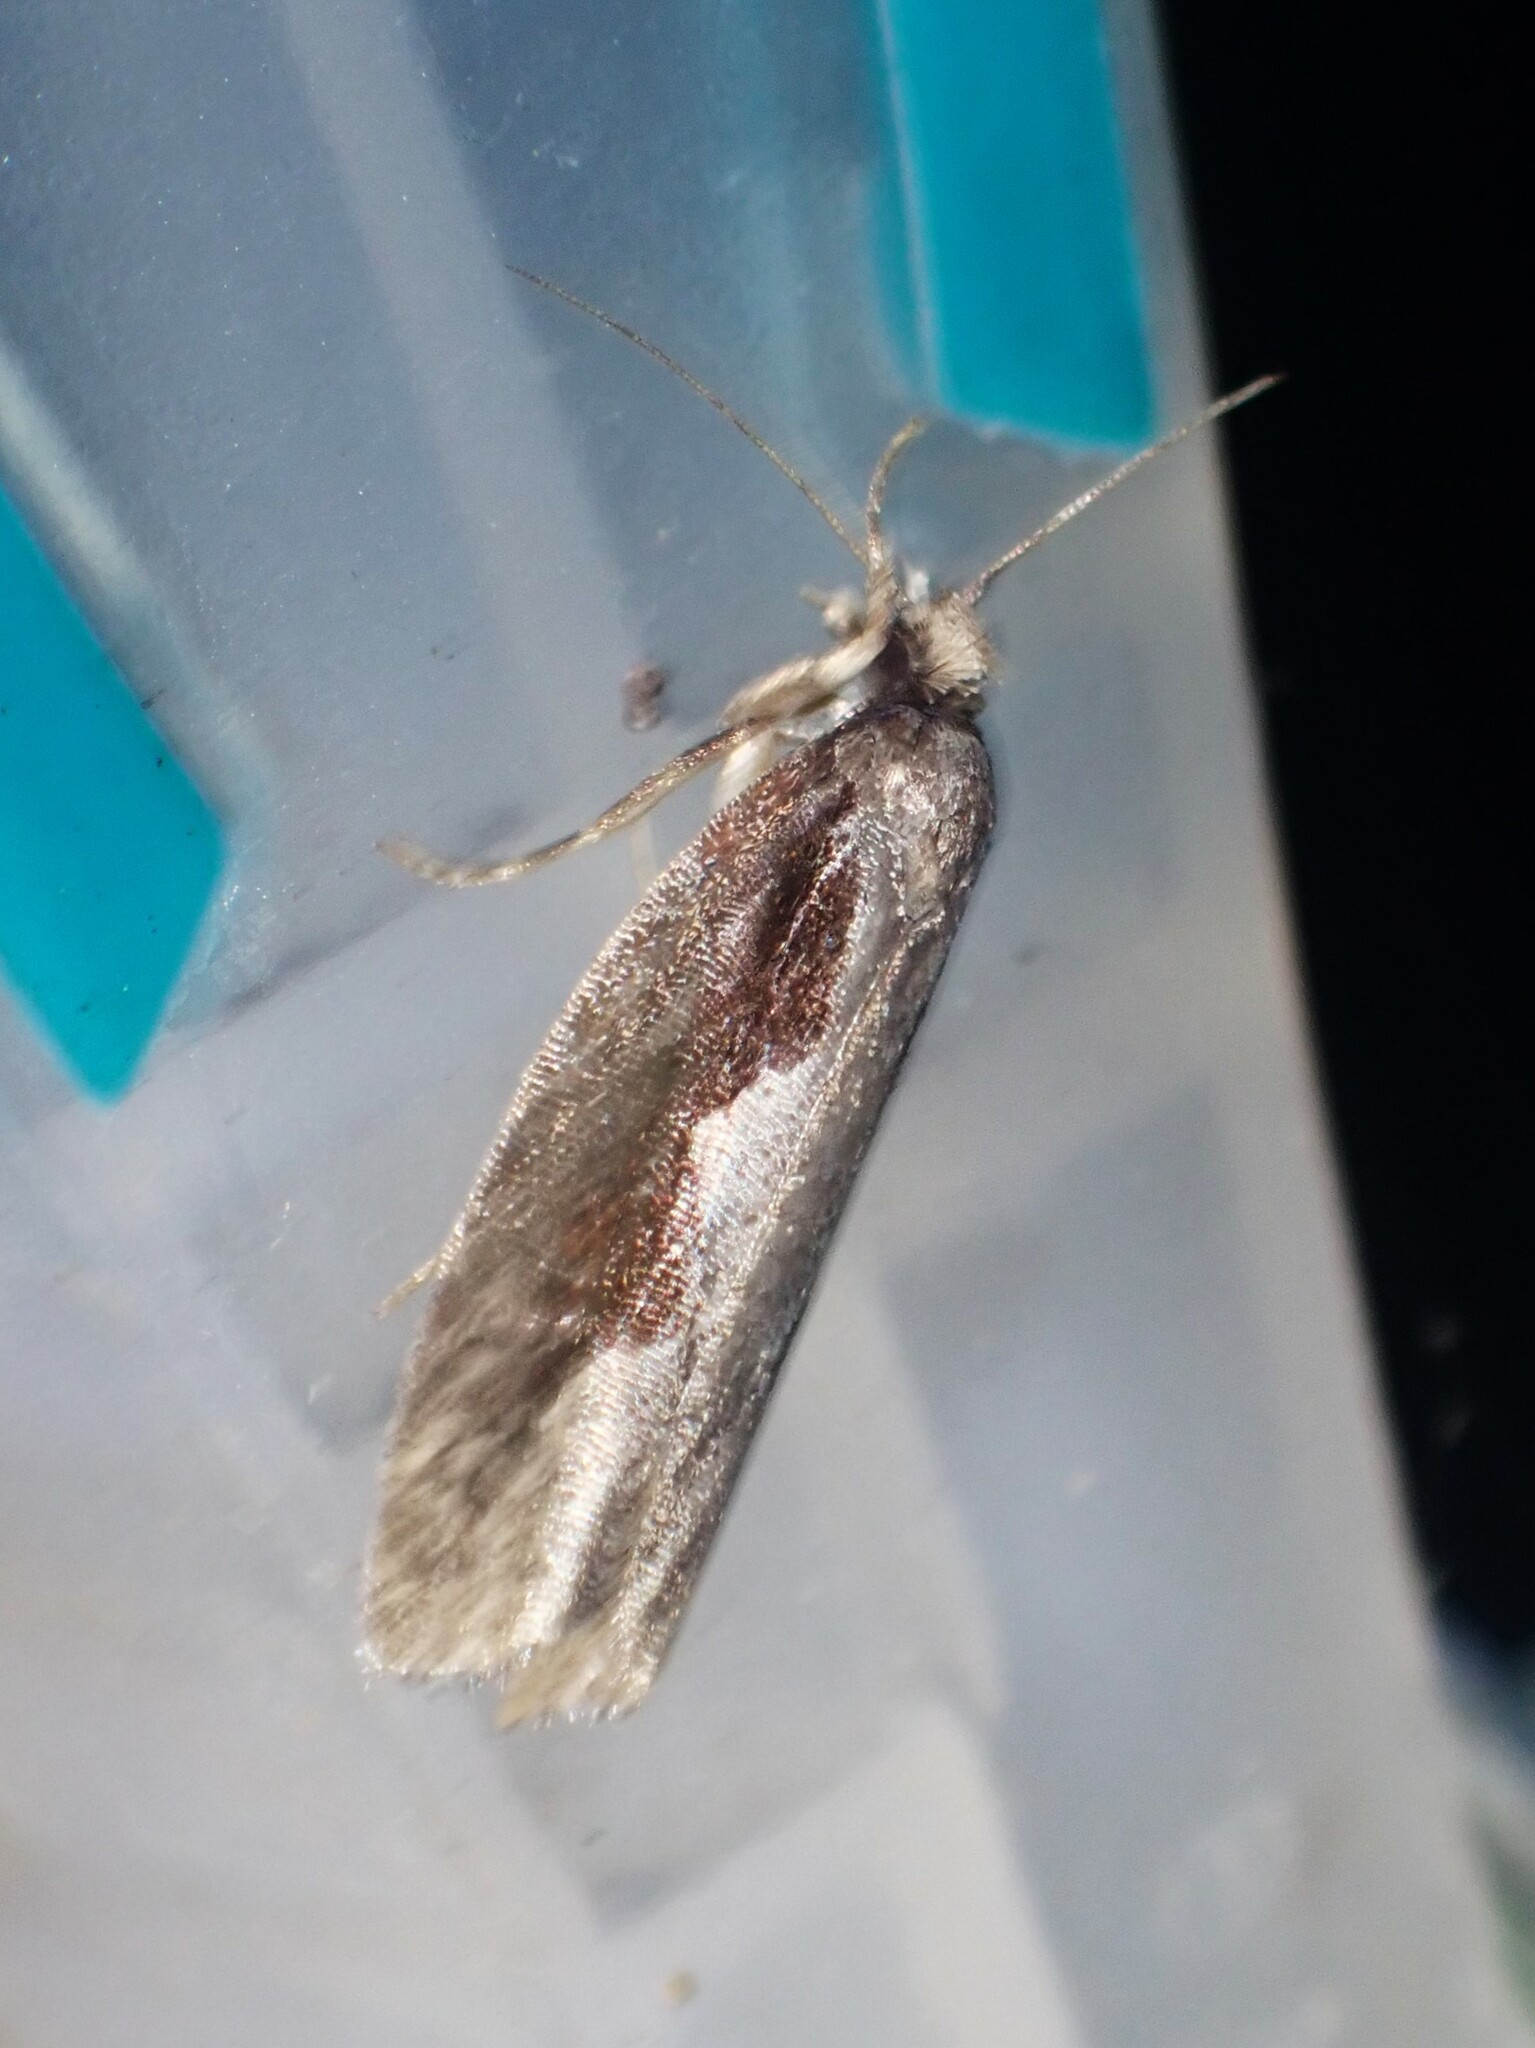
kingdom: Animalia
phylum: Arthropoda
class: Insecta
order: Lepidoptera
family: Tortricidae
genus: Epinotia
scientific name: Epinotia lindana
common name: Diamondback epinotia moth
